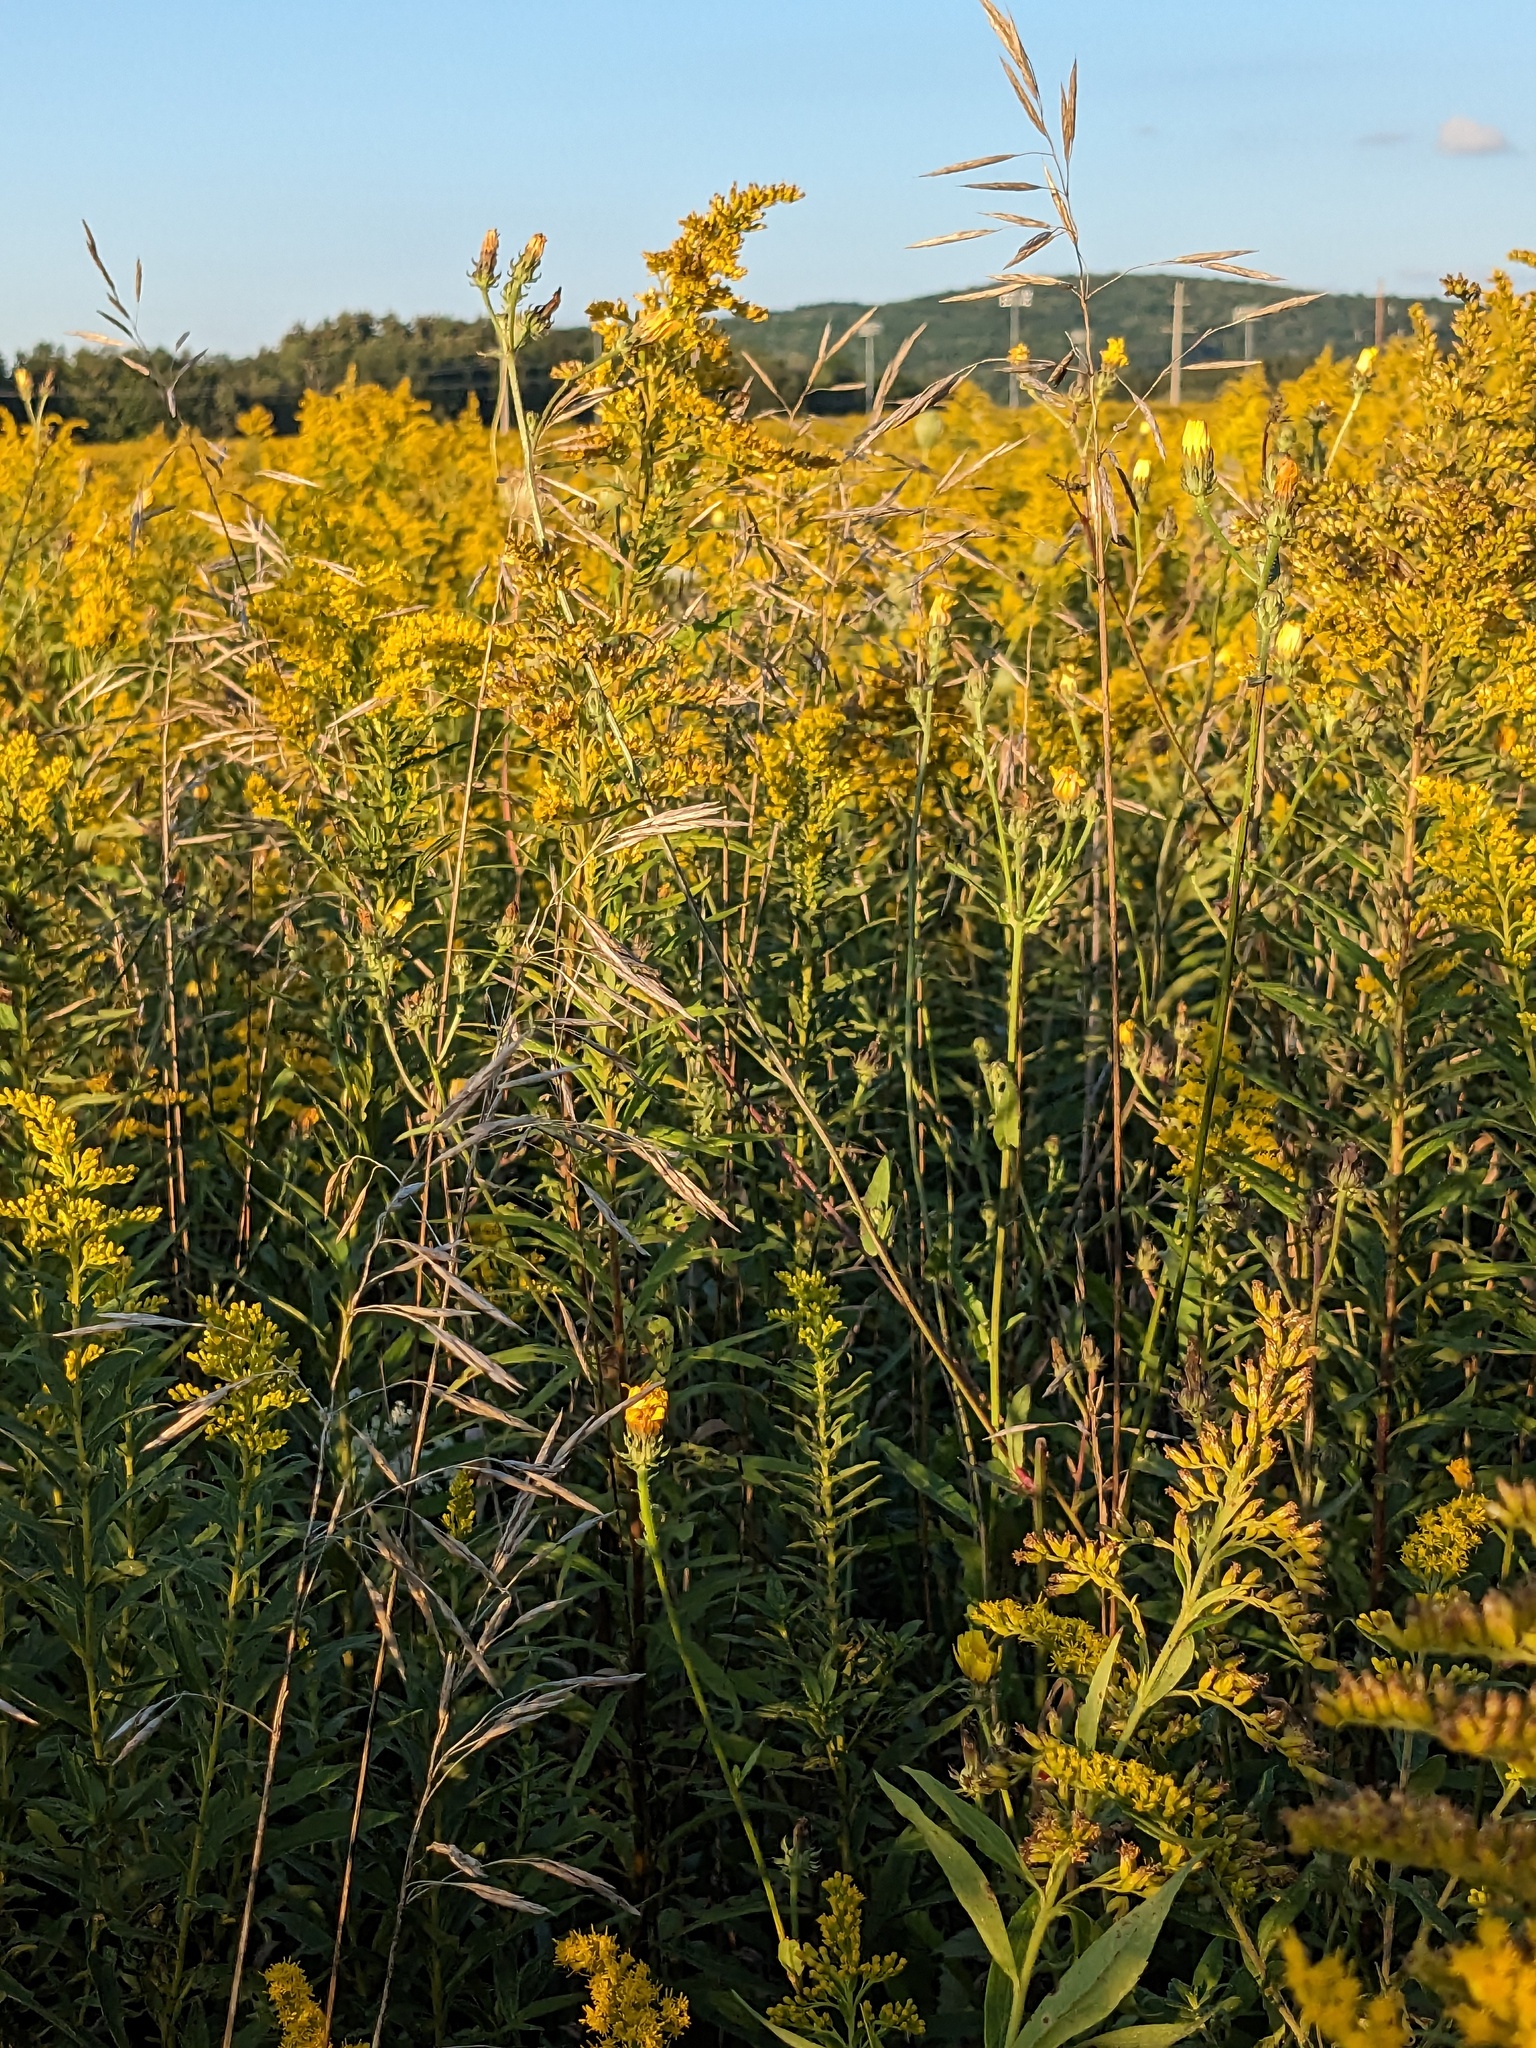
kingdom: Plantae
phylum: Tracheophyta
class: Liliopsida
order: Poales
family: Poaceae
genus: Bromus
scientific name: Bromus inermis
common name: Smooth brome
